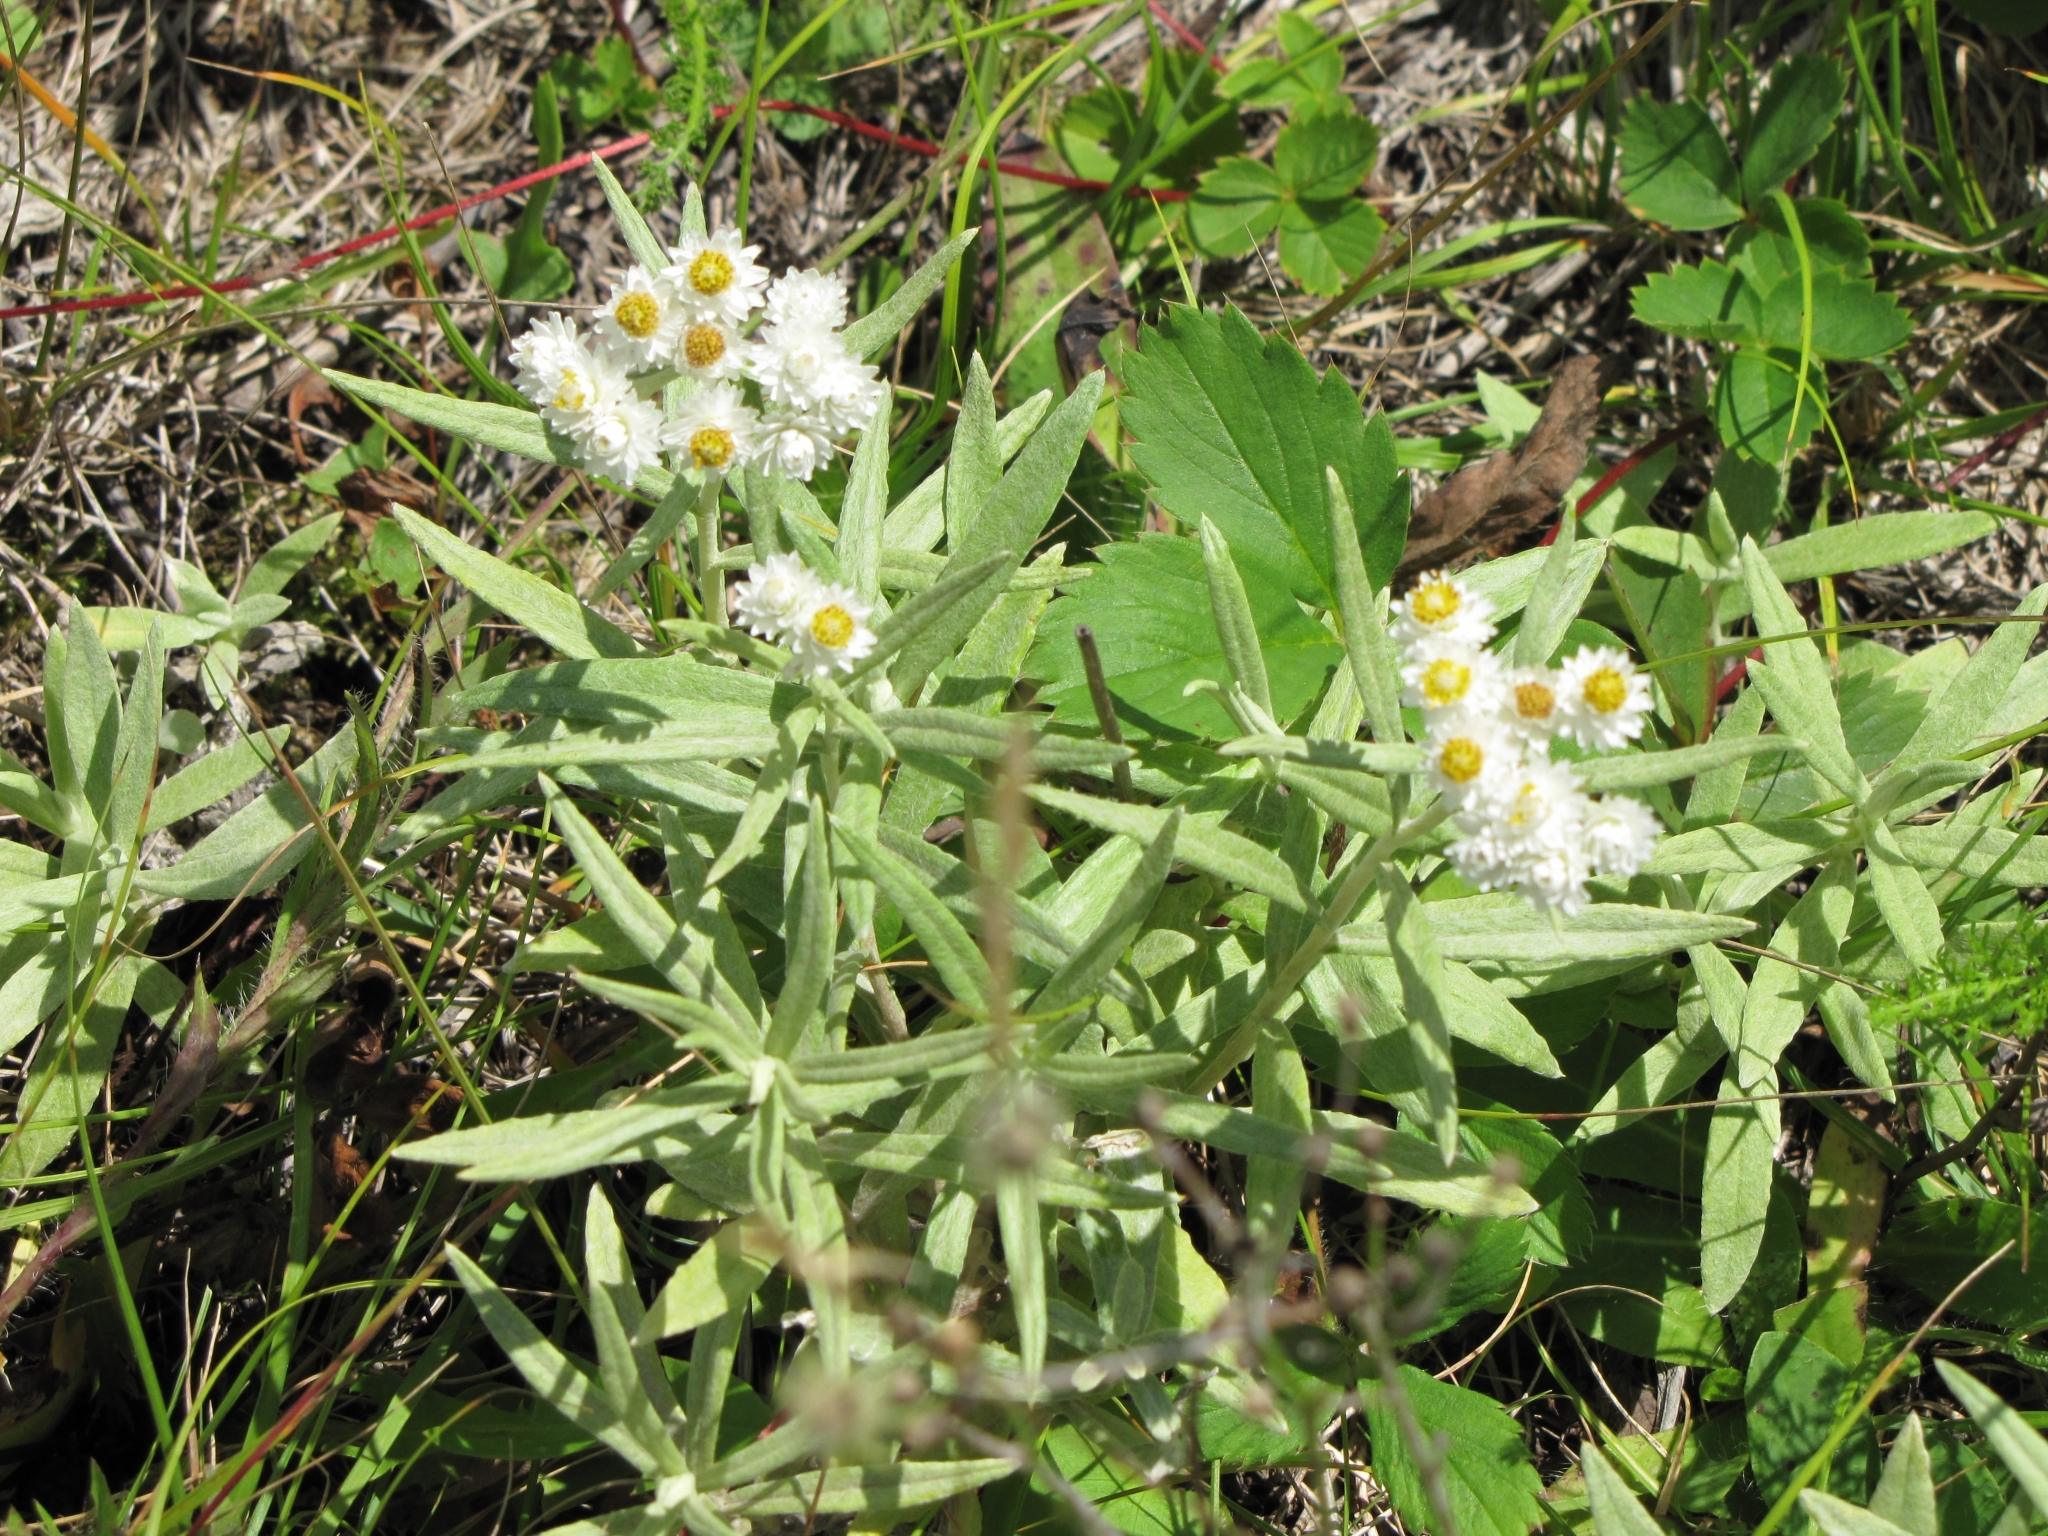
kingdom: Plantae
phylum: Tracheophyta
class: Magnoliopsida
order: Asterales
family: Asteraceae
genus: Anaphalis
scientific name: Anaphalis margaritacea
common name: Pearly everlasting
